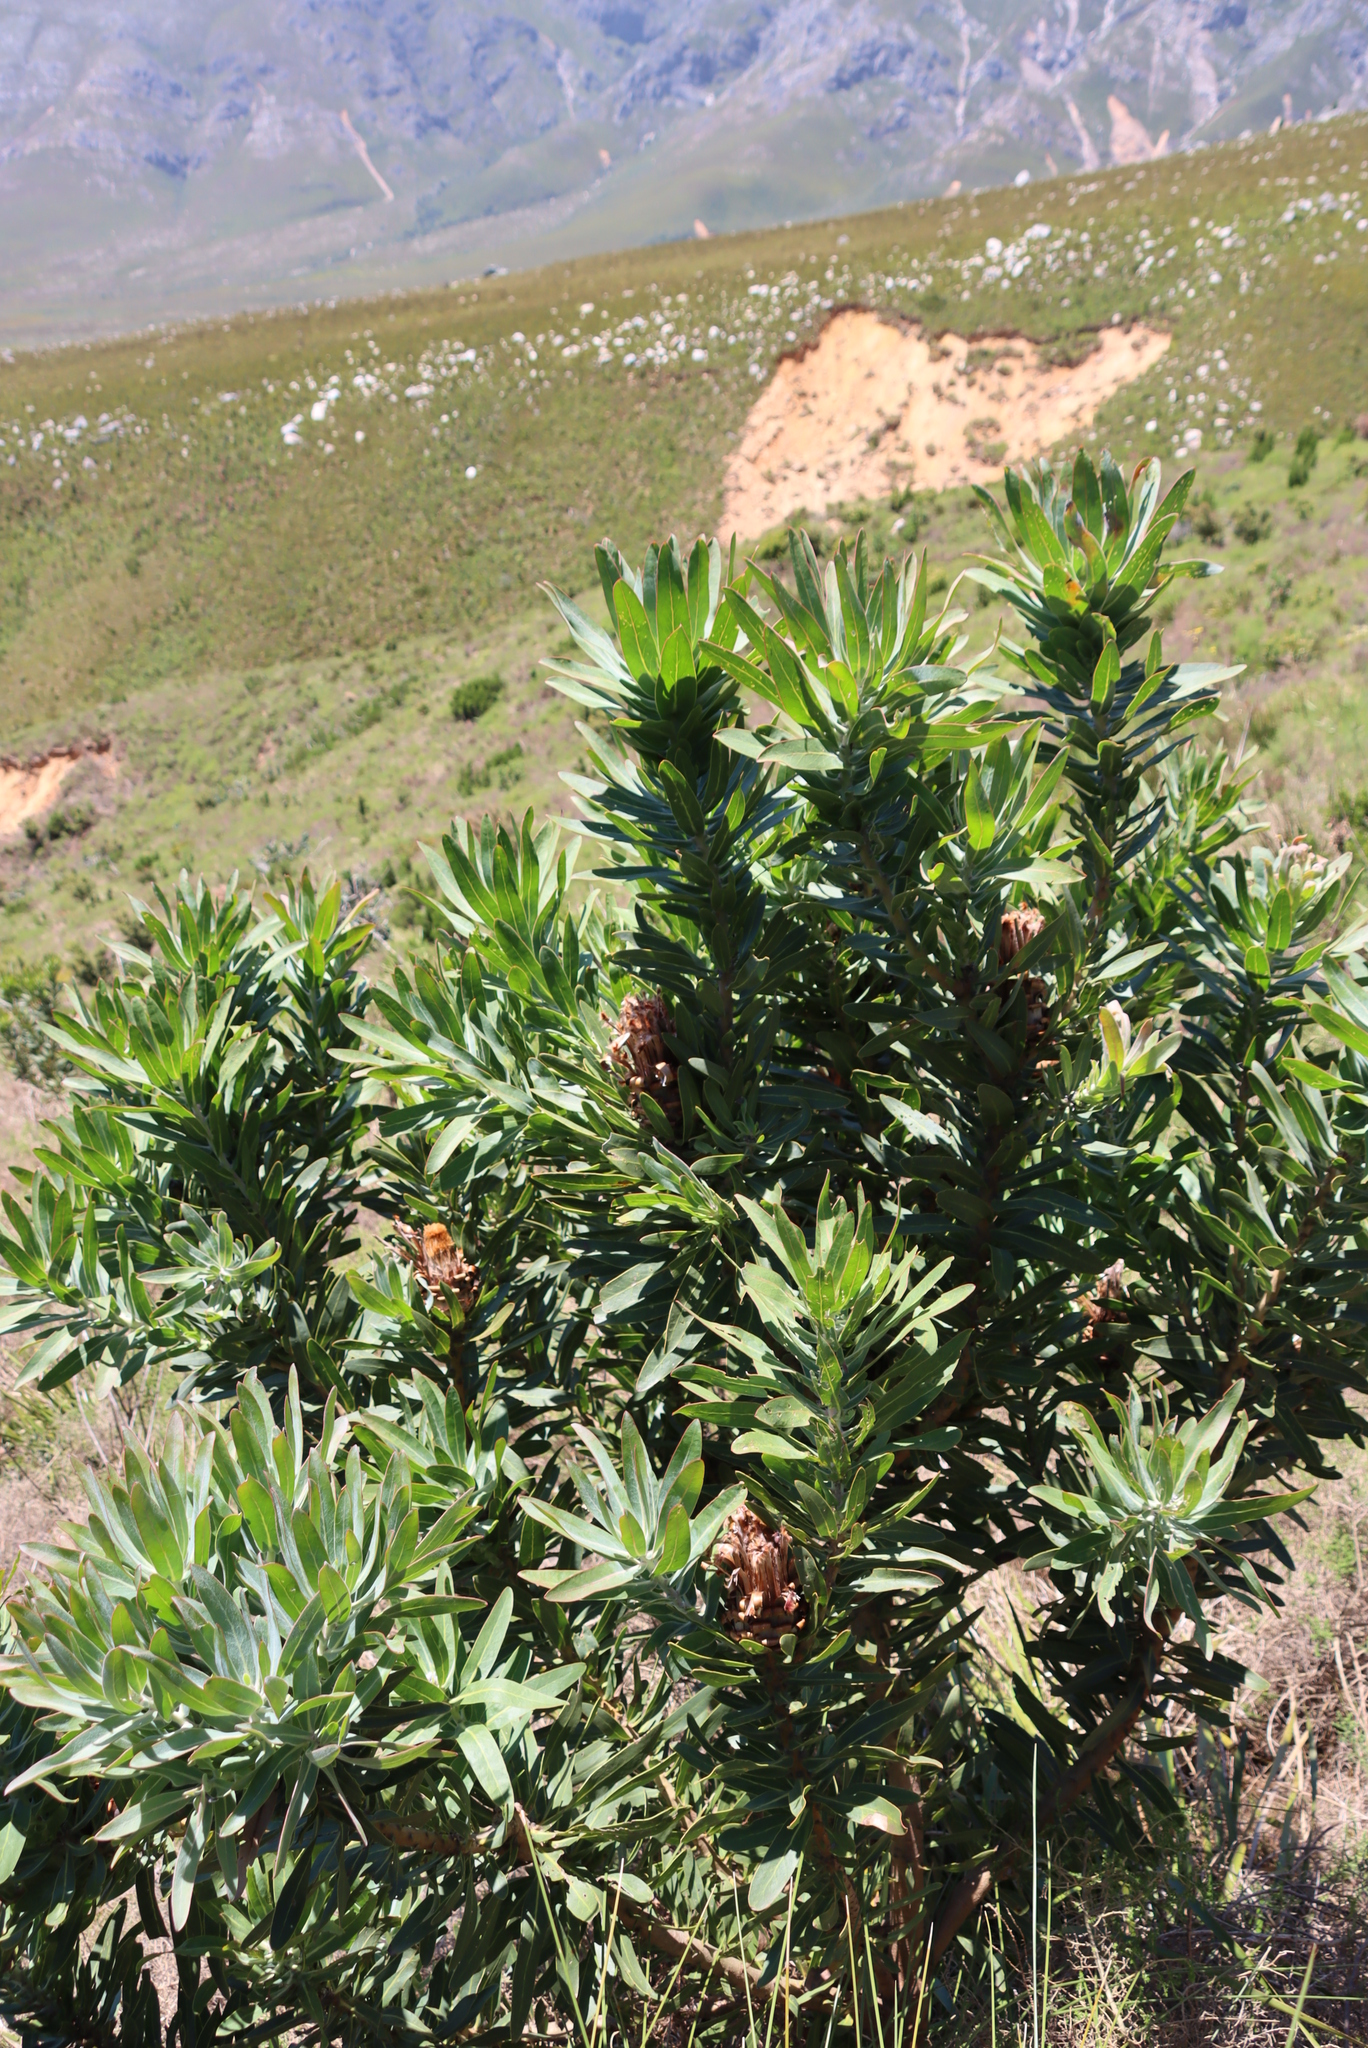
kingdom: Plantae
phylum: Tracheophyta
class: Magnoliopsida
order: Proteales
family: Proteaceae
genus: Protea
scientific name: Protea laurifolia
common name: Grey-leaf sugarbsh
